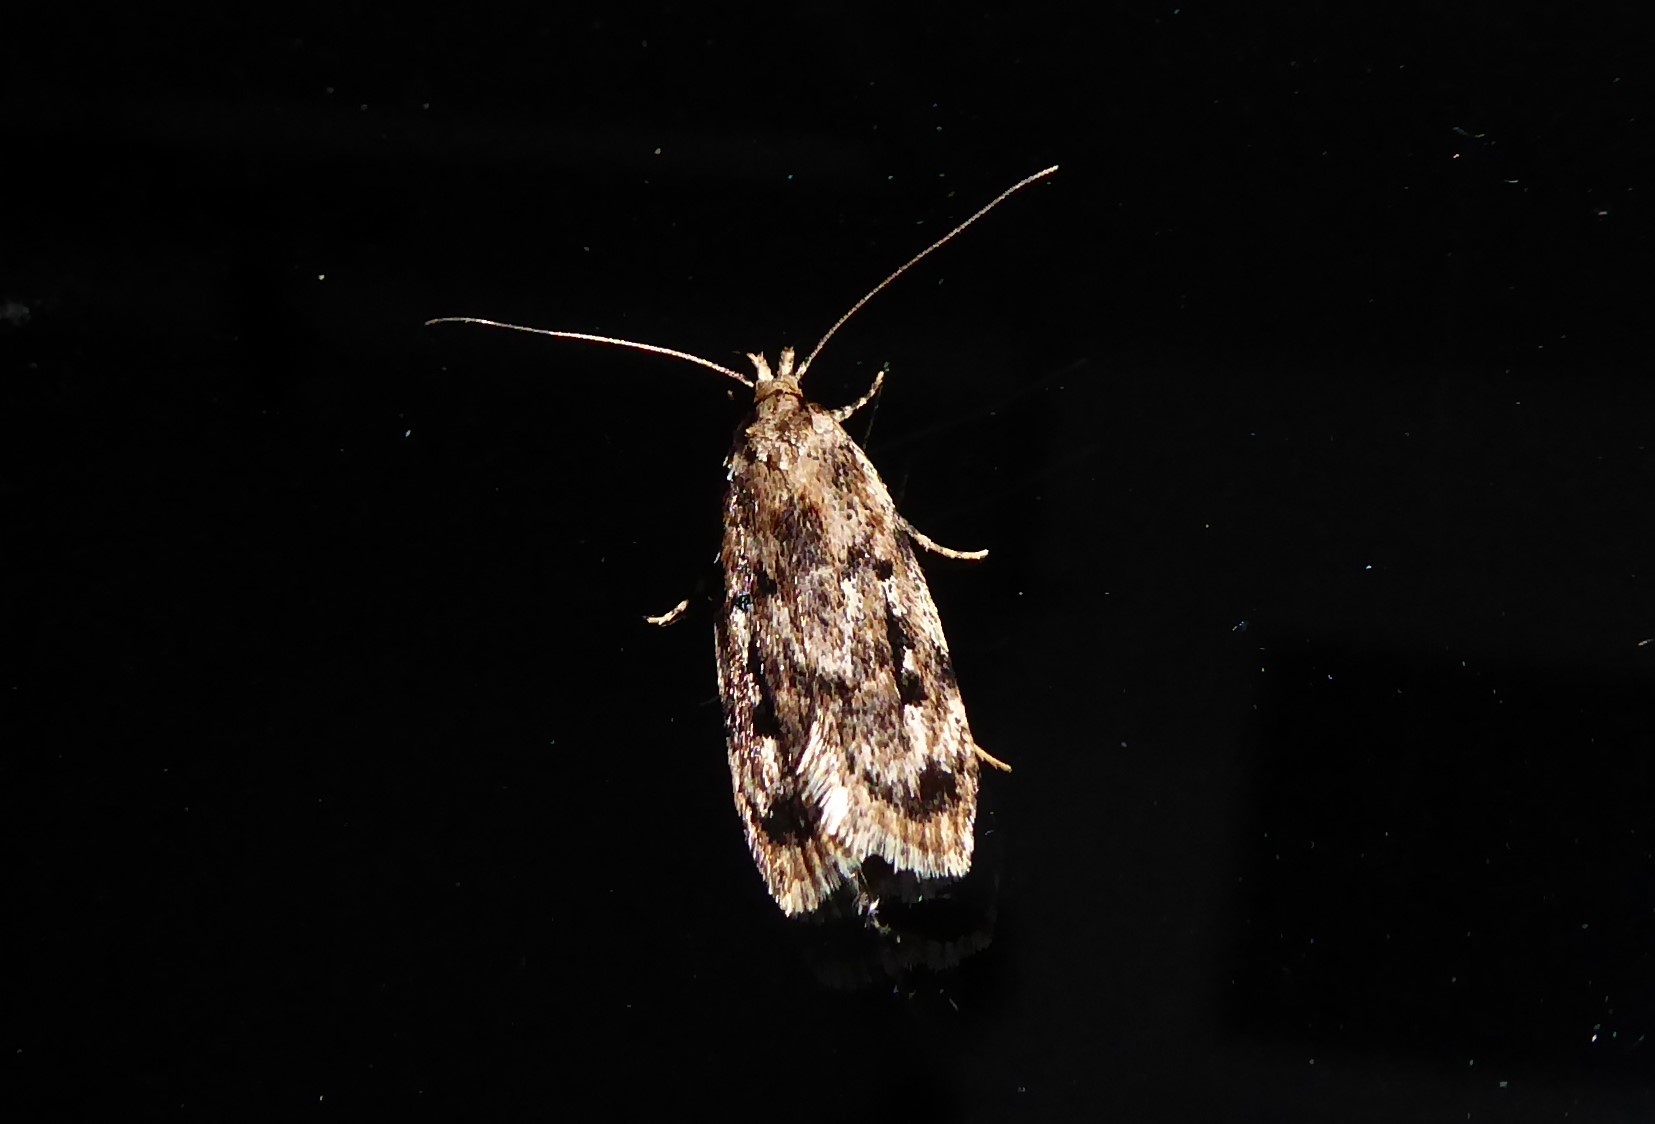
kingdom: Animalia
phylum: Arthropoda
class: Insecta
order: Lepidoptera
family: Oecophoridae
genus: Barea
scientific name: Barea exarcha
